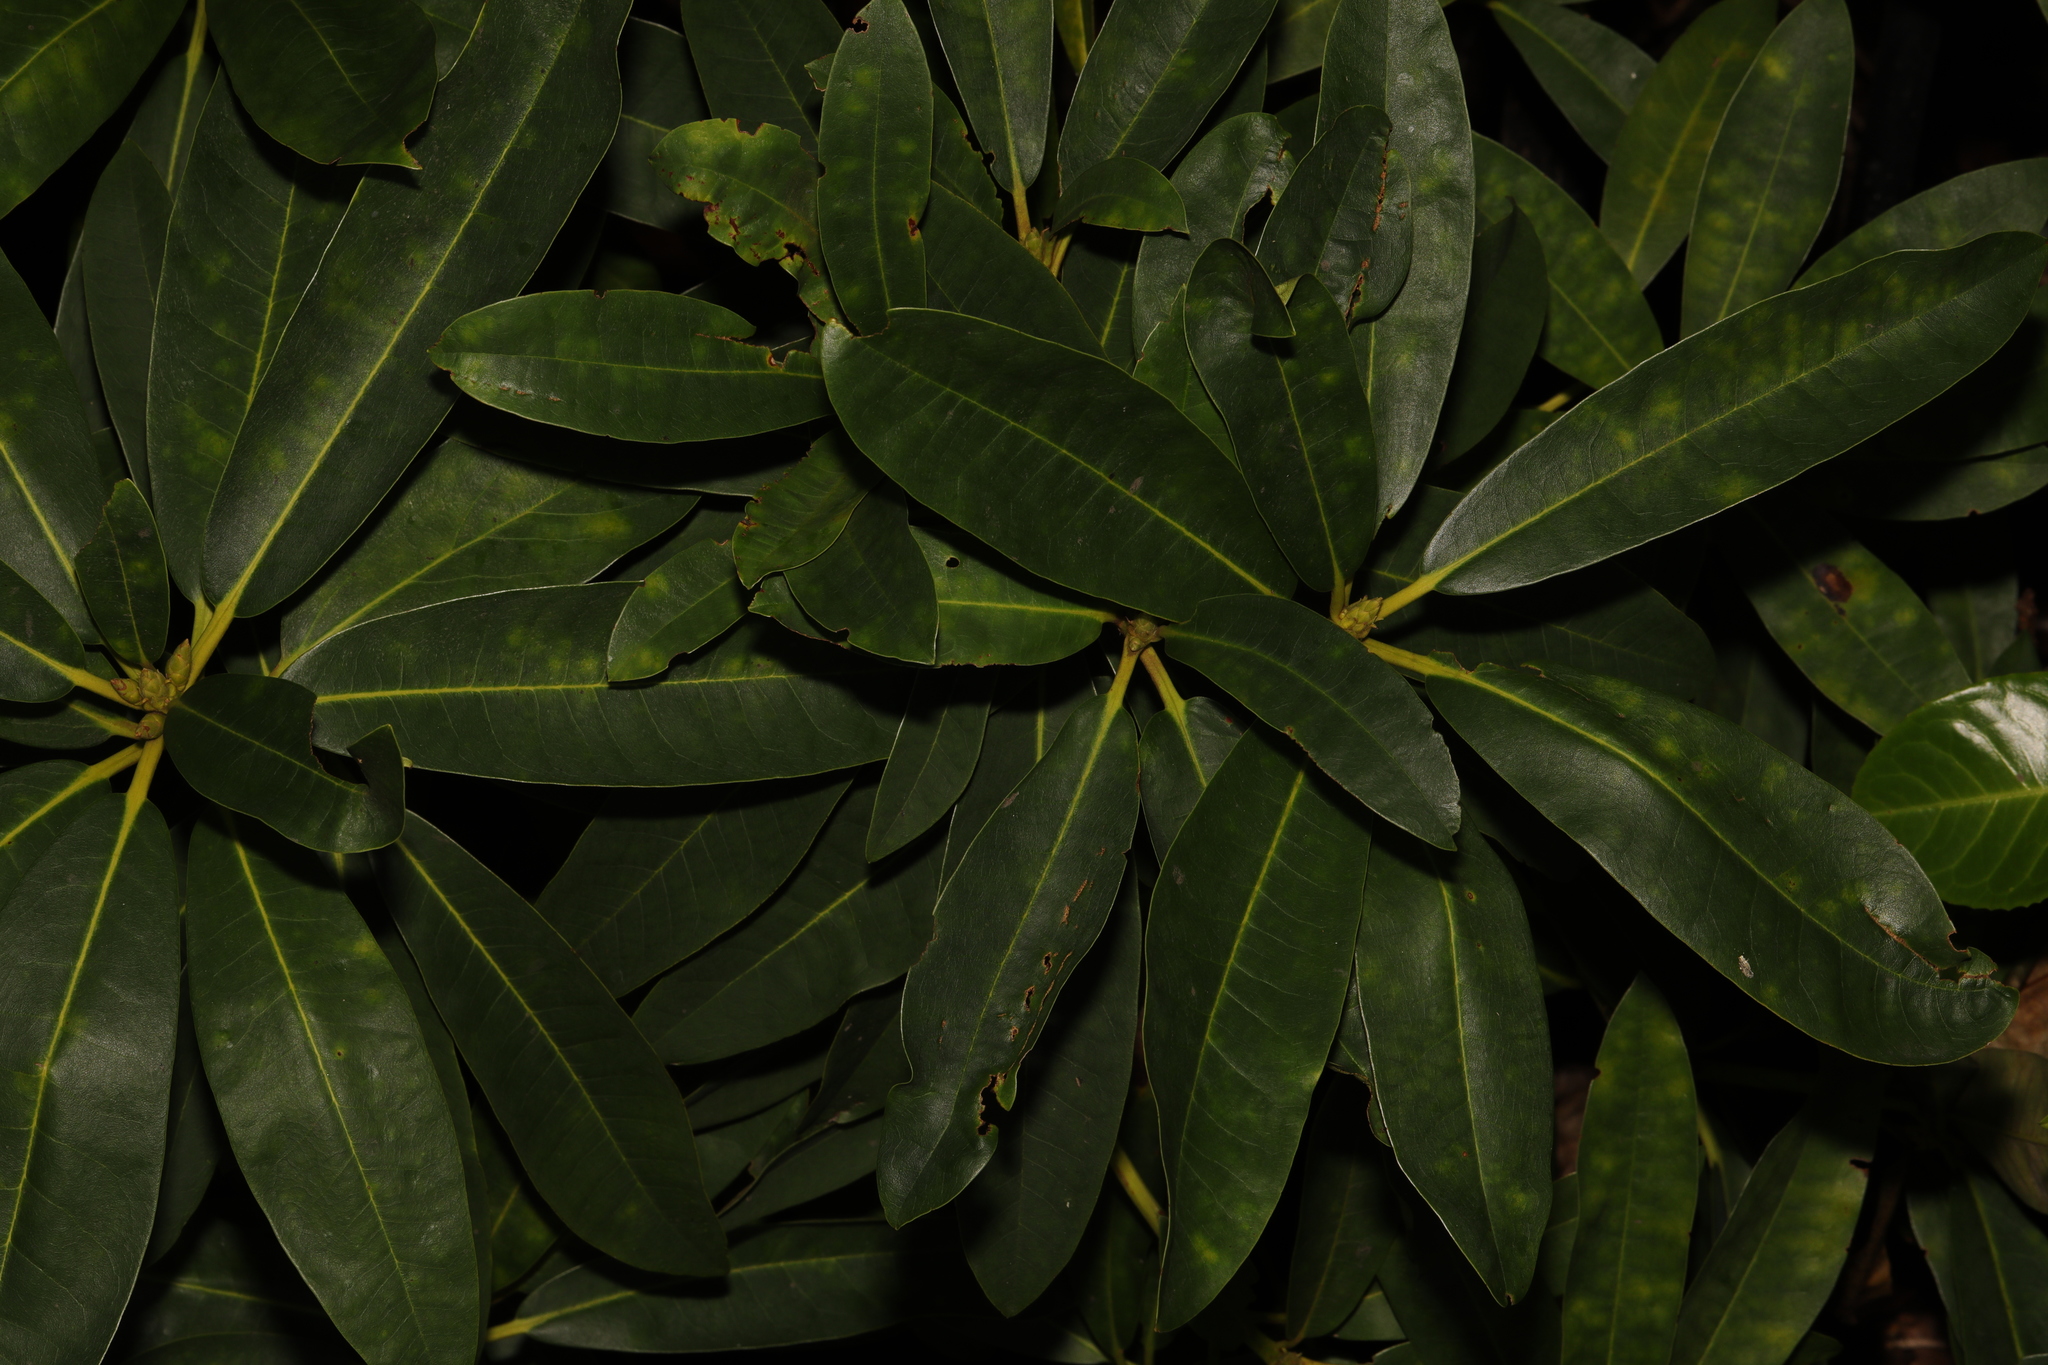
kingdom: Plantae
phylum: Tracheophyta
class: Magnoliopsida
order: Ericales
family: Ericaceae
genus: Rhododendron
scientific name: Rhododendron ponticum
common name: Rhododendron
